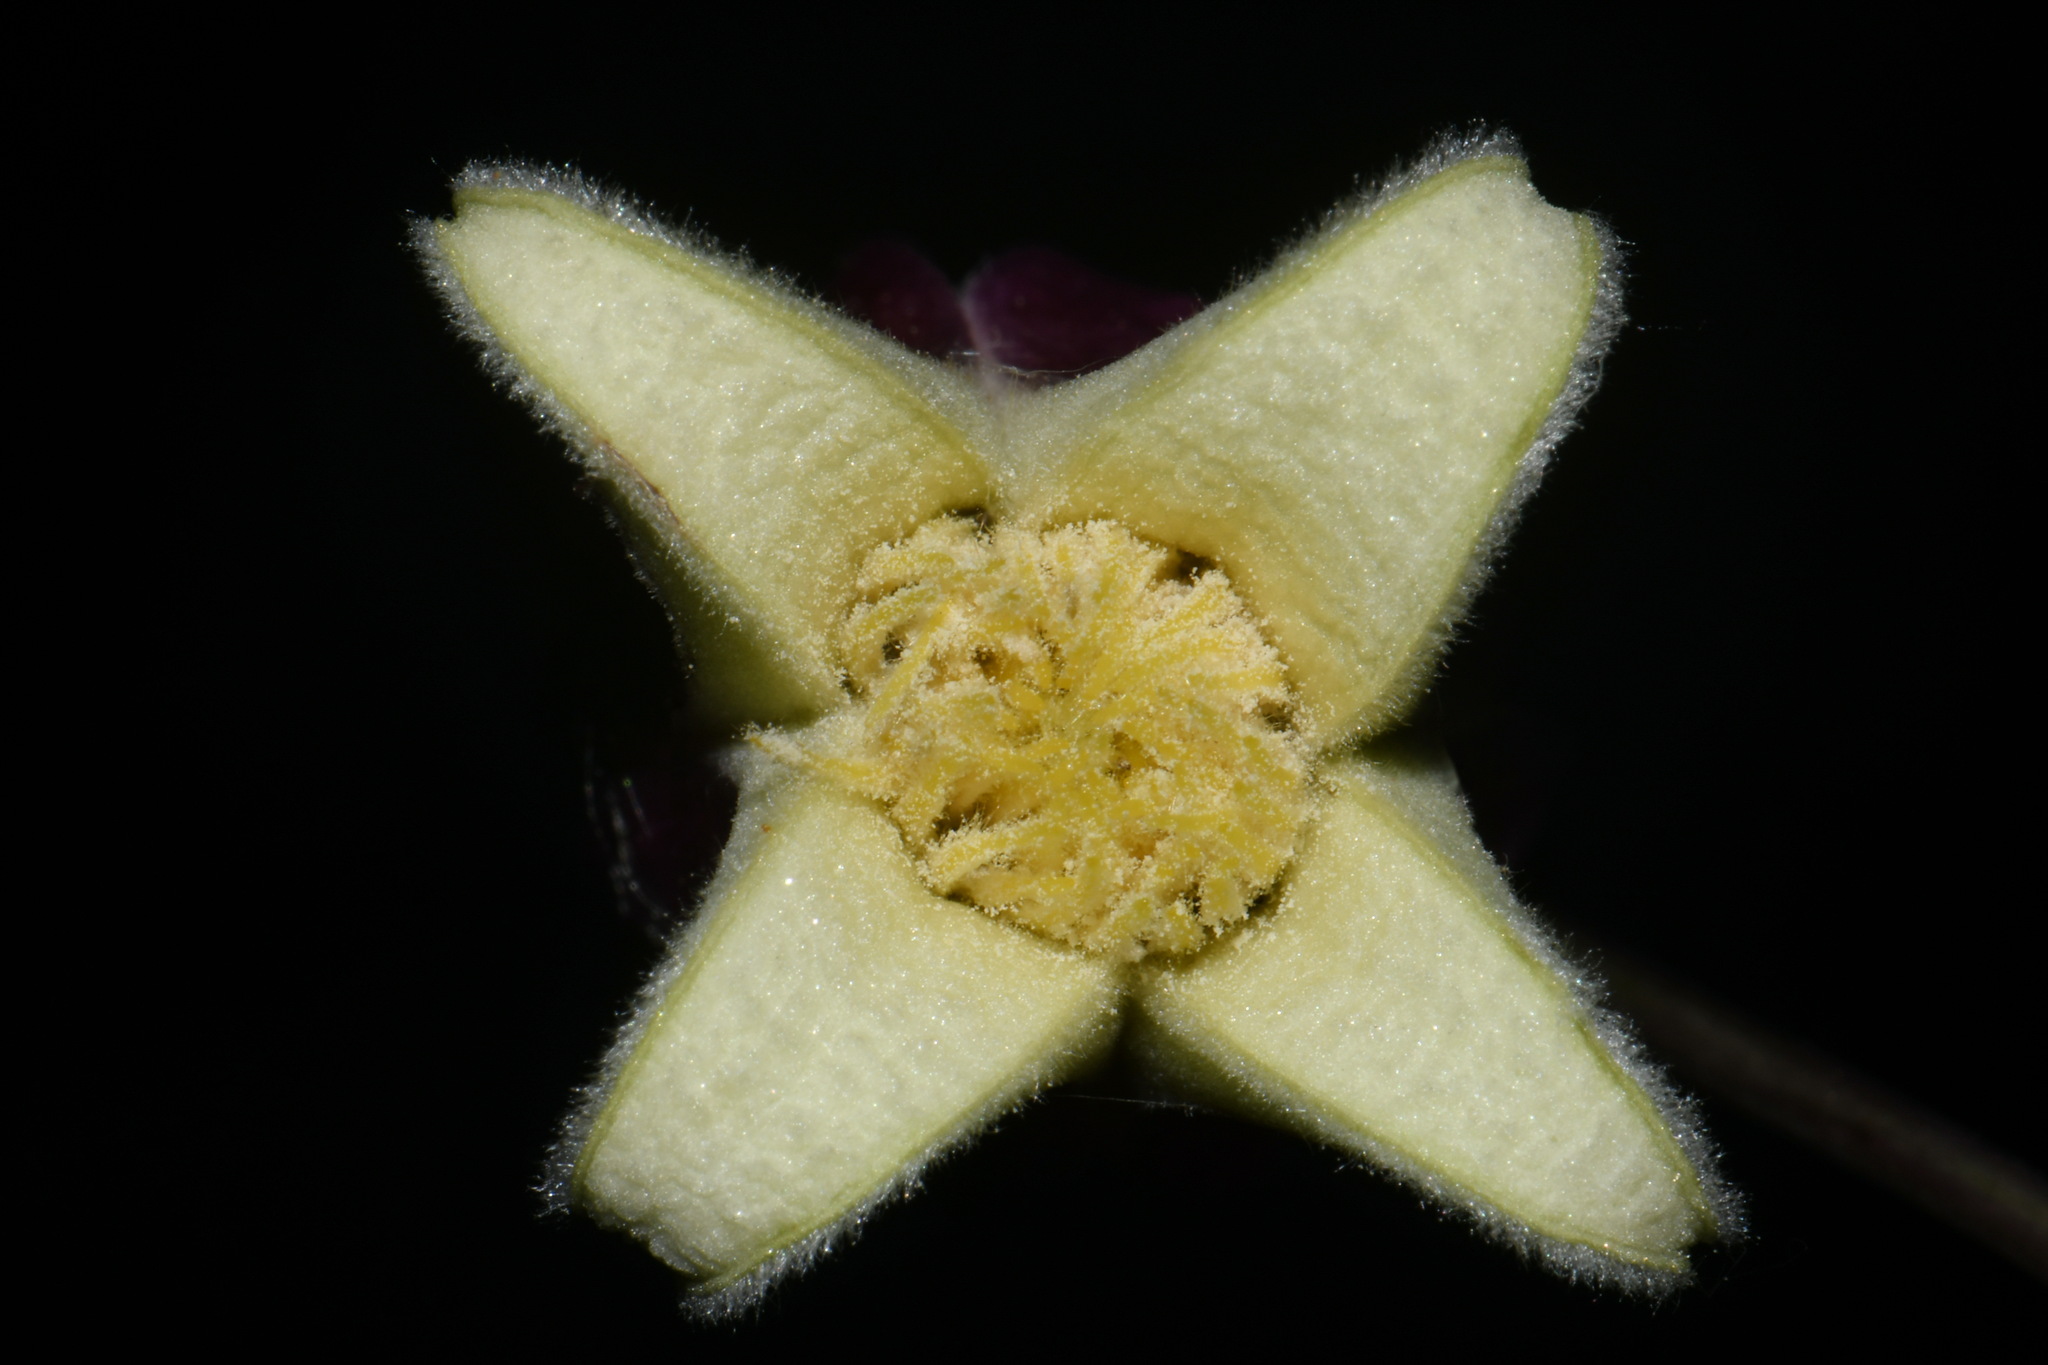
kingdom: Plantae
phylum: Tracheophyta
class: Magnoliopsida
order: Ranunculales
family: Ranunculaceae
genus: Clematis
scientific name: Clematis viorna
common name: Leather-flower
